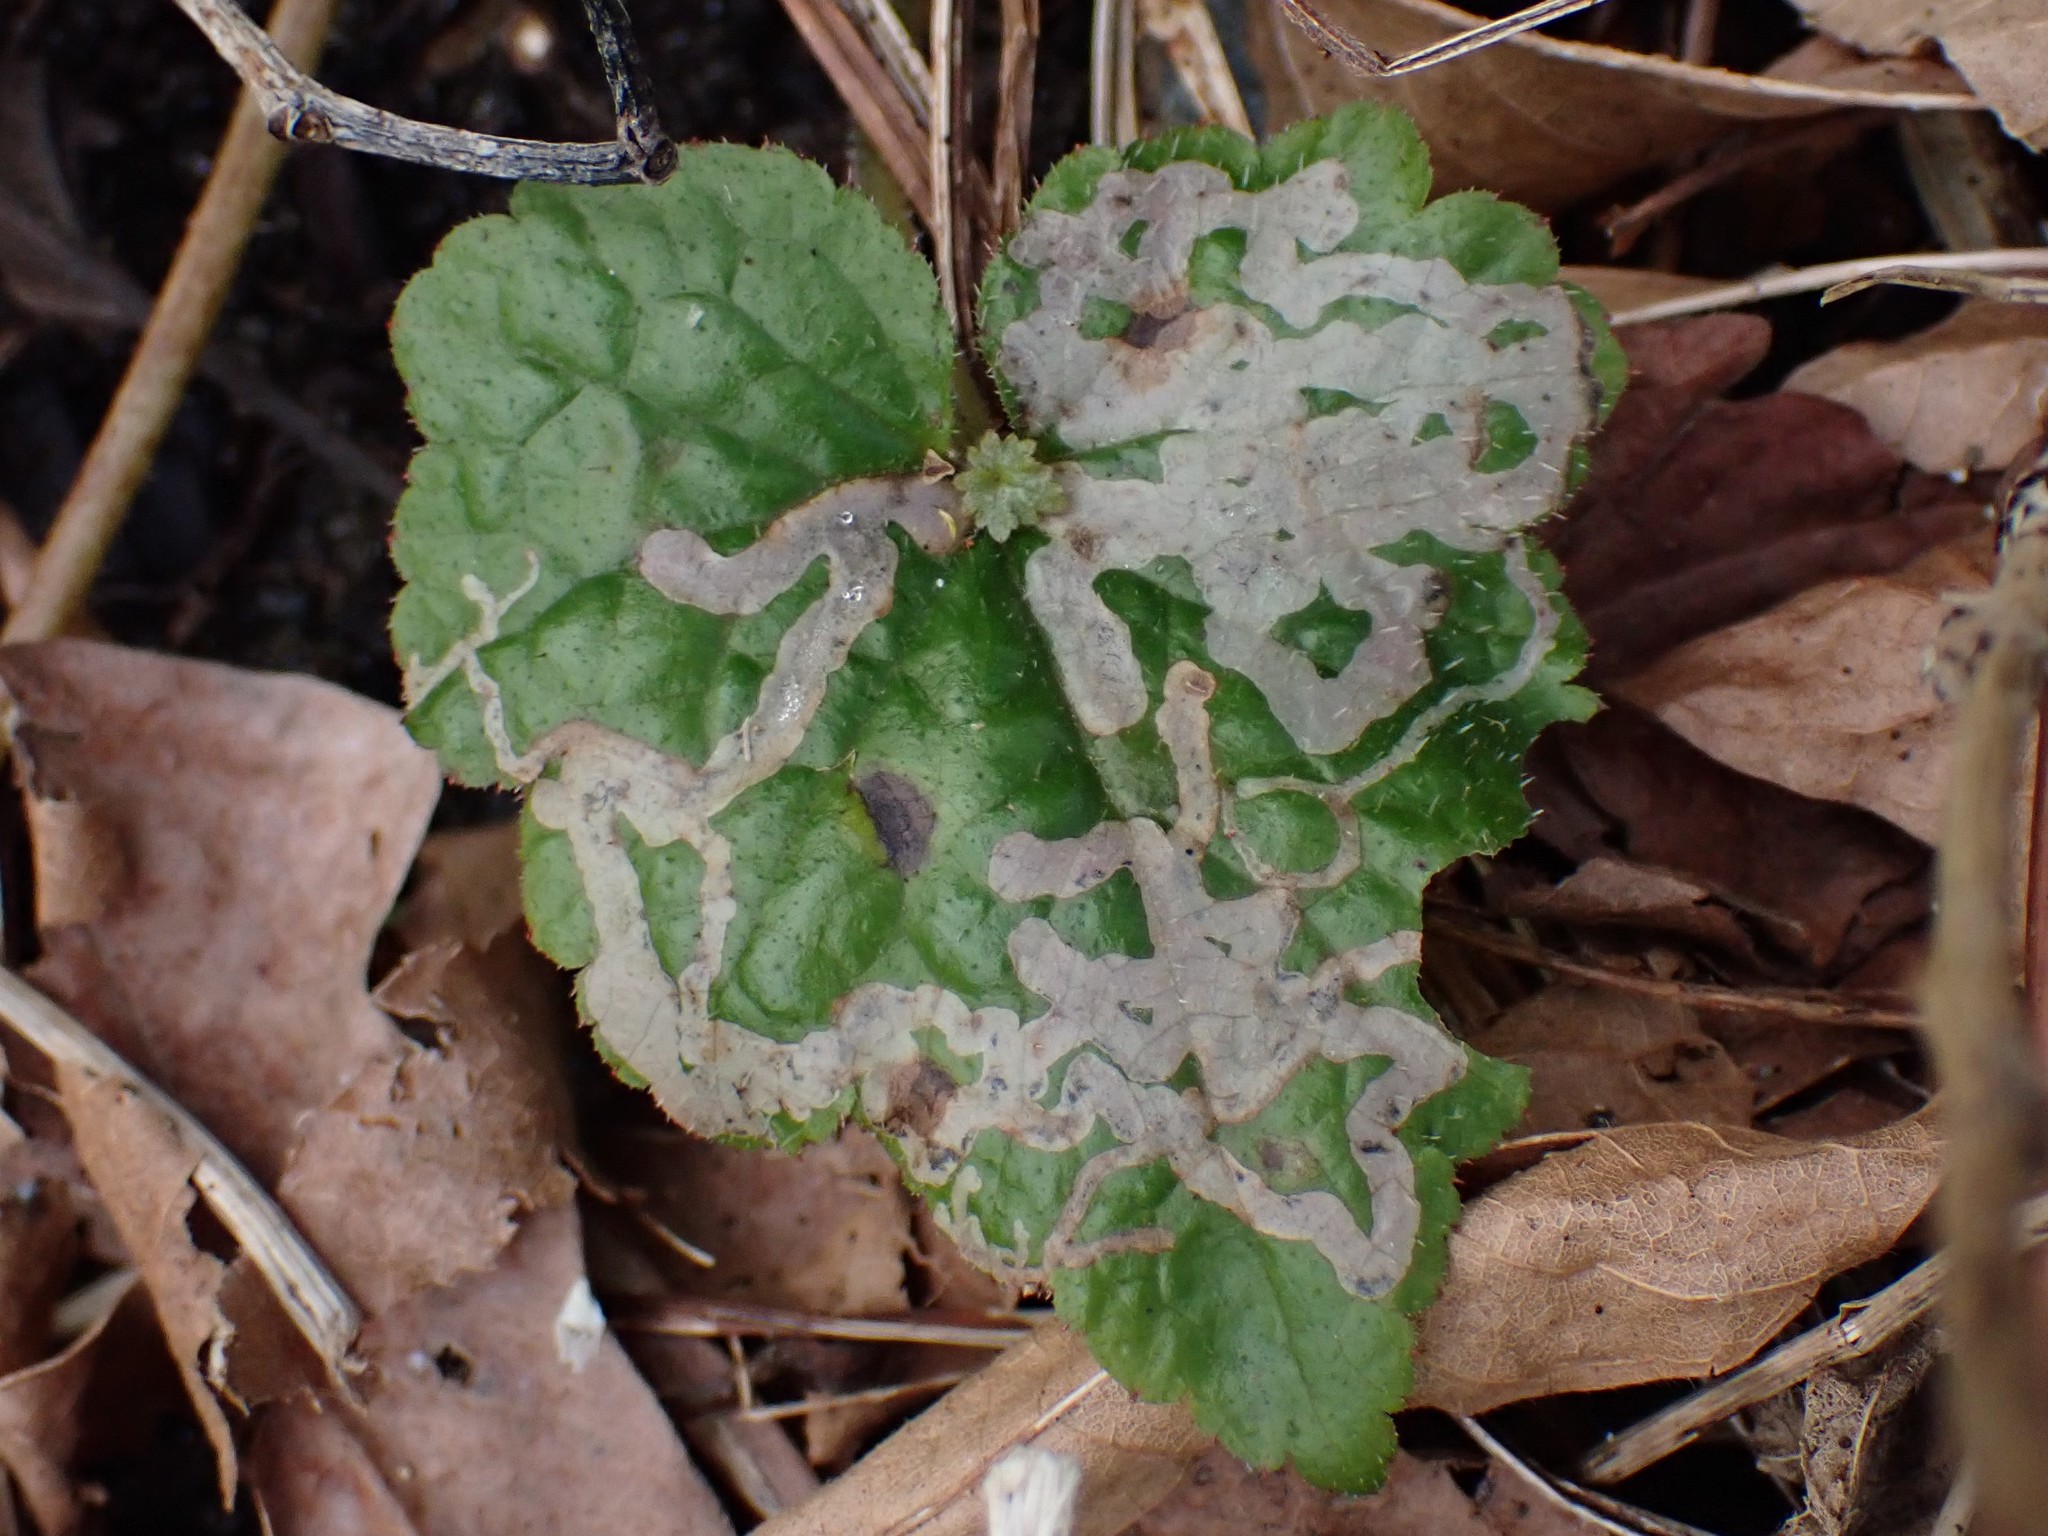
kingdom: Animalia
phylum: Arthropoda
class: Insecta
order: Diptera
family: Agromyzidae
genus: Phytomyza
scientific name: Phytomyza tiarellae
